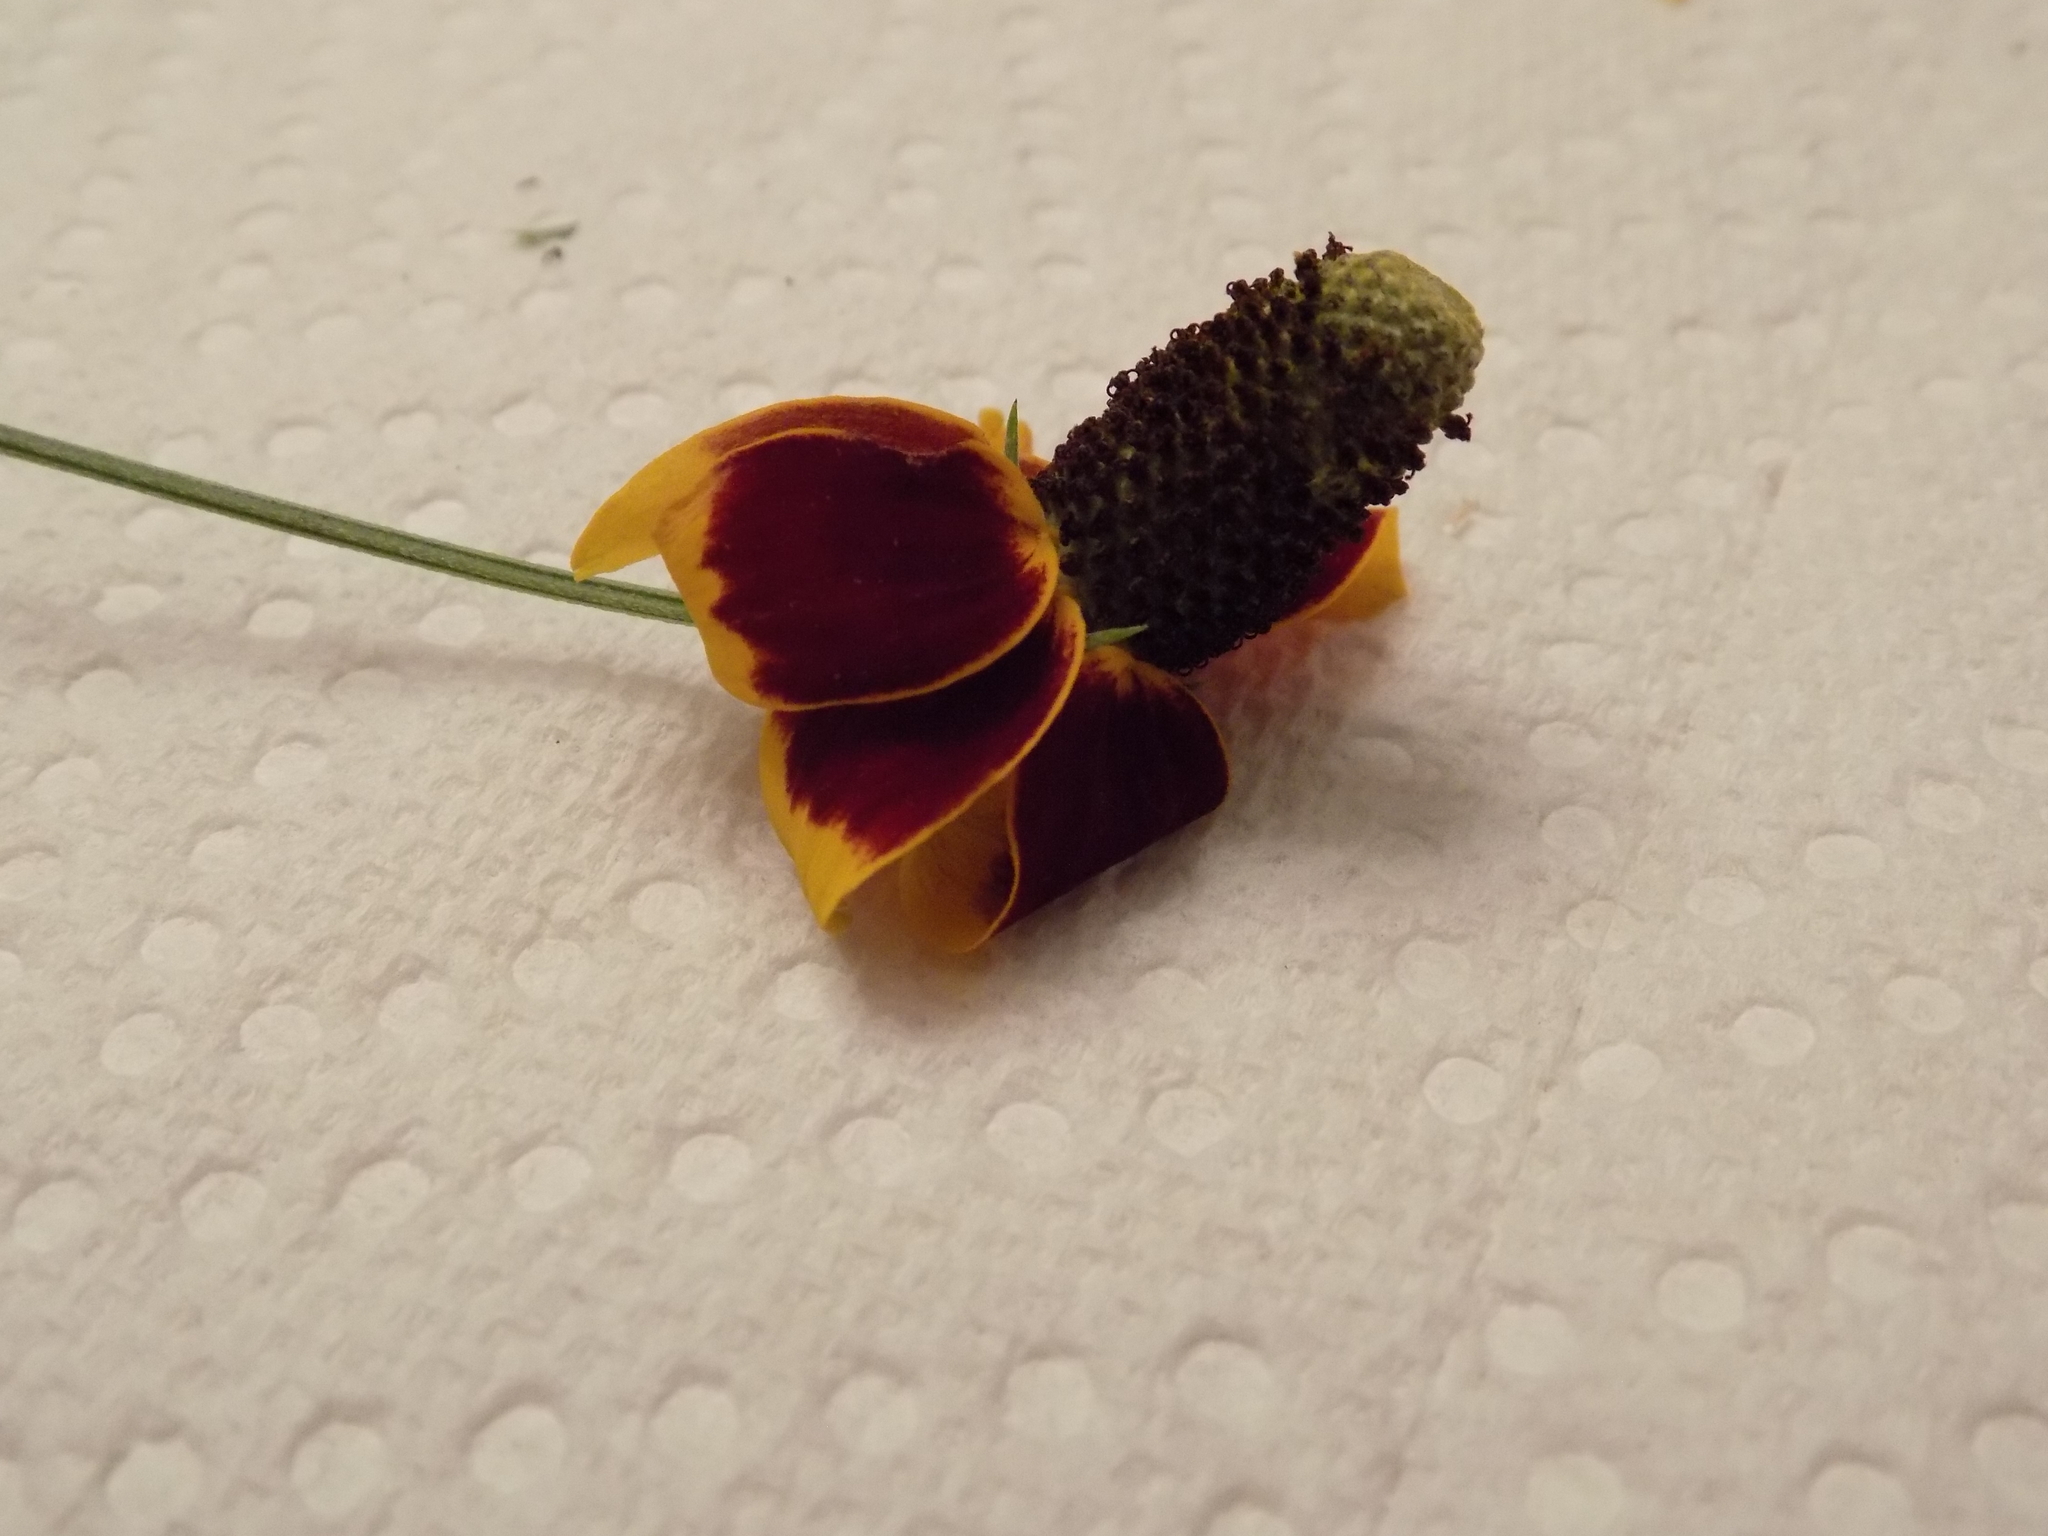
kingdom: Plantae
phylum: Tracheophyta
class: Magnoliopsida
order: Asterales
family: Asteraceae
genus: Ratibida
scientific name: Ratibida columnifera
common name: Prairie coneflower
